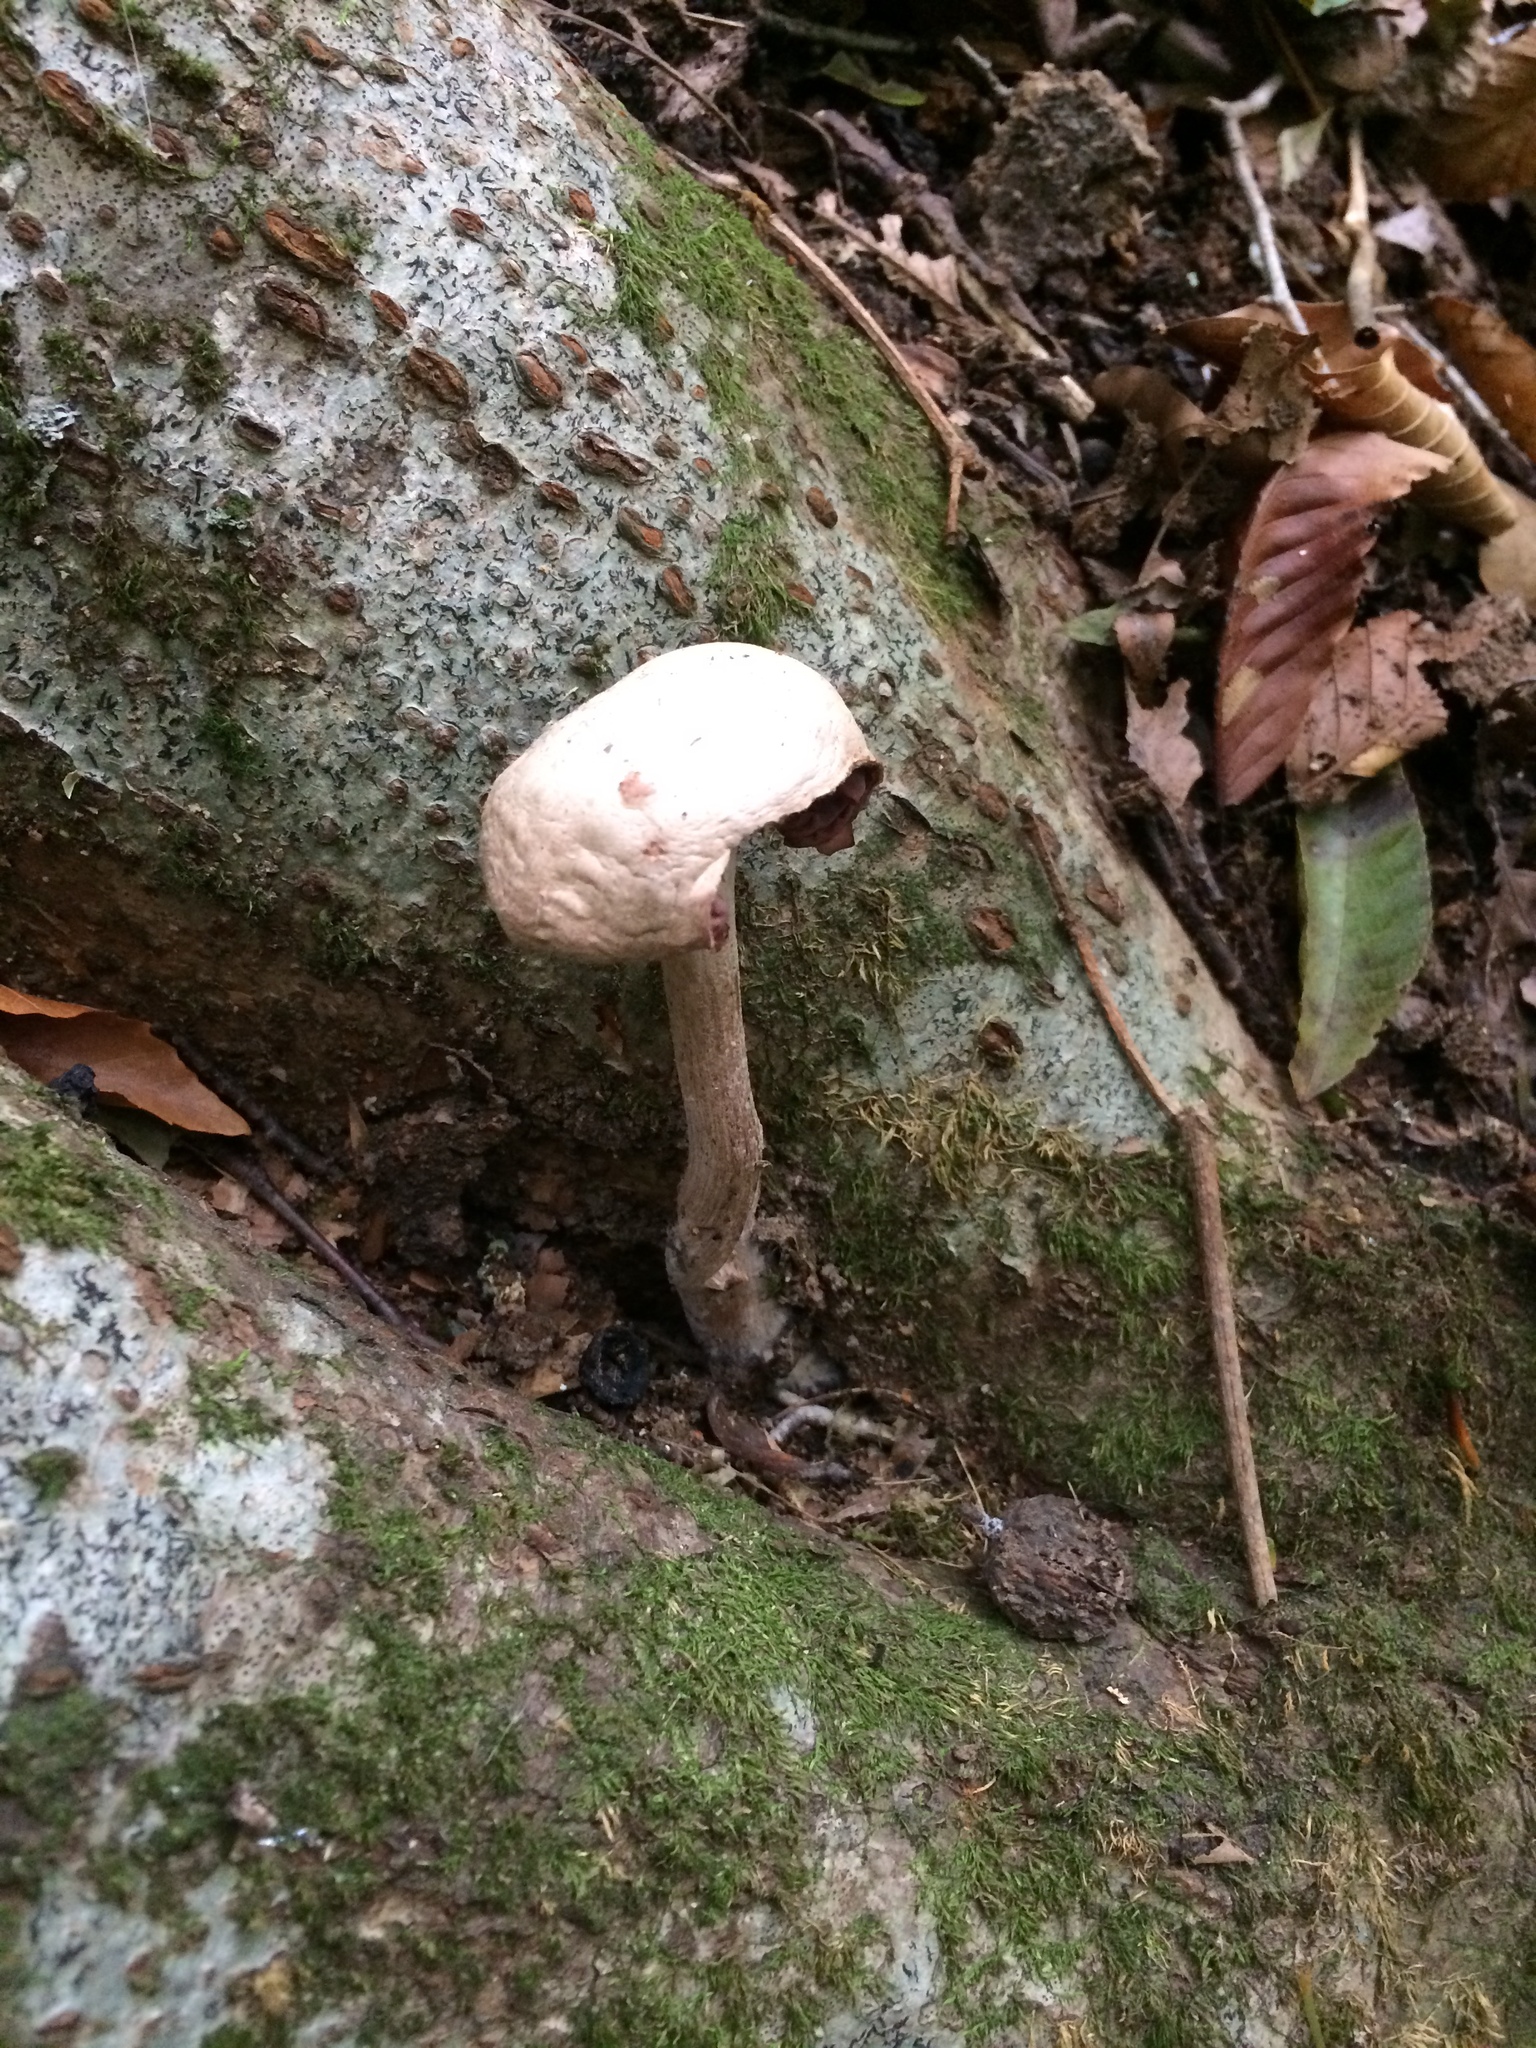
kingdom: Fungi
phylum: Basidiomycota
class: Agaricomycetes
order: Agaricales
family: Hydnangiaceae
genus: Laccaria
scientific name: Laccaria ochropurpurea
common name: Purple laccaria
